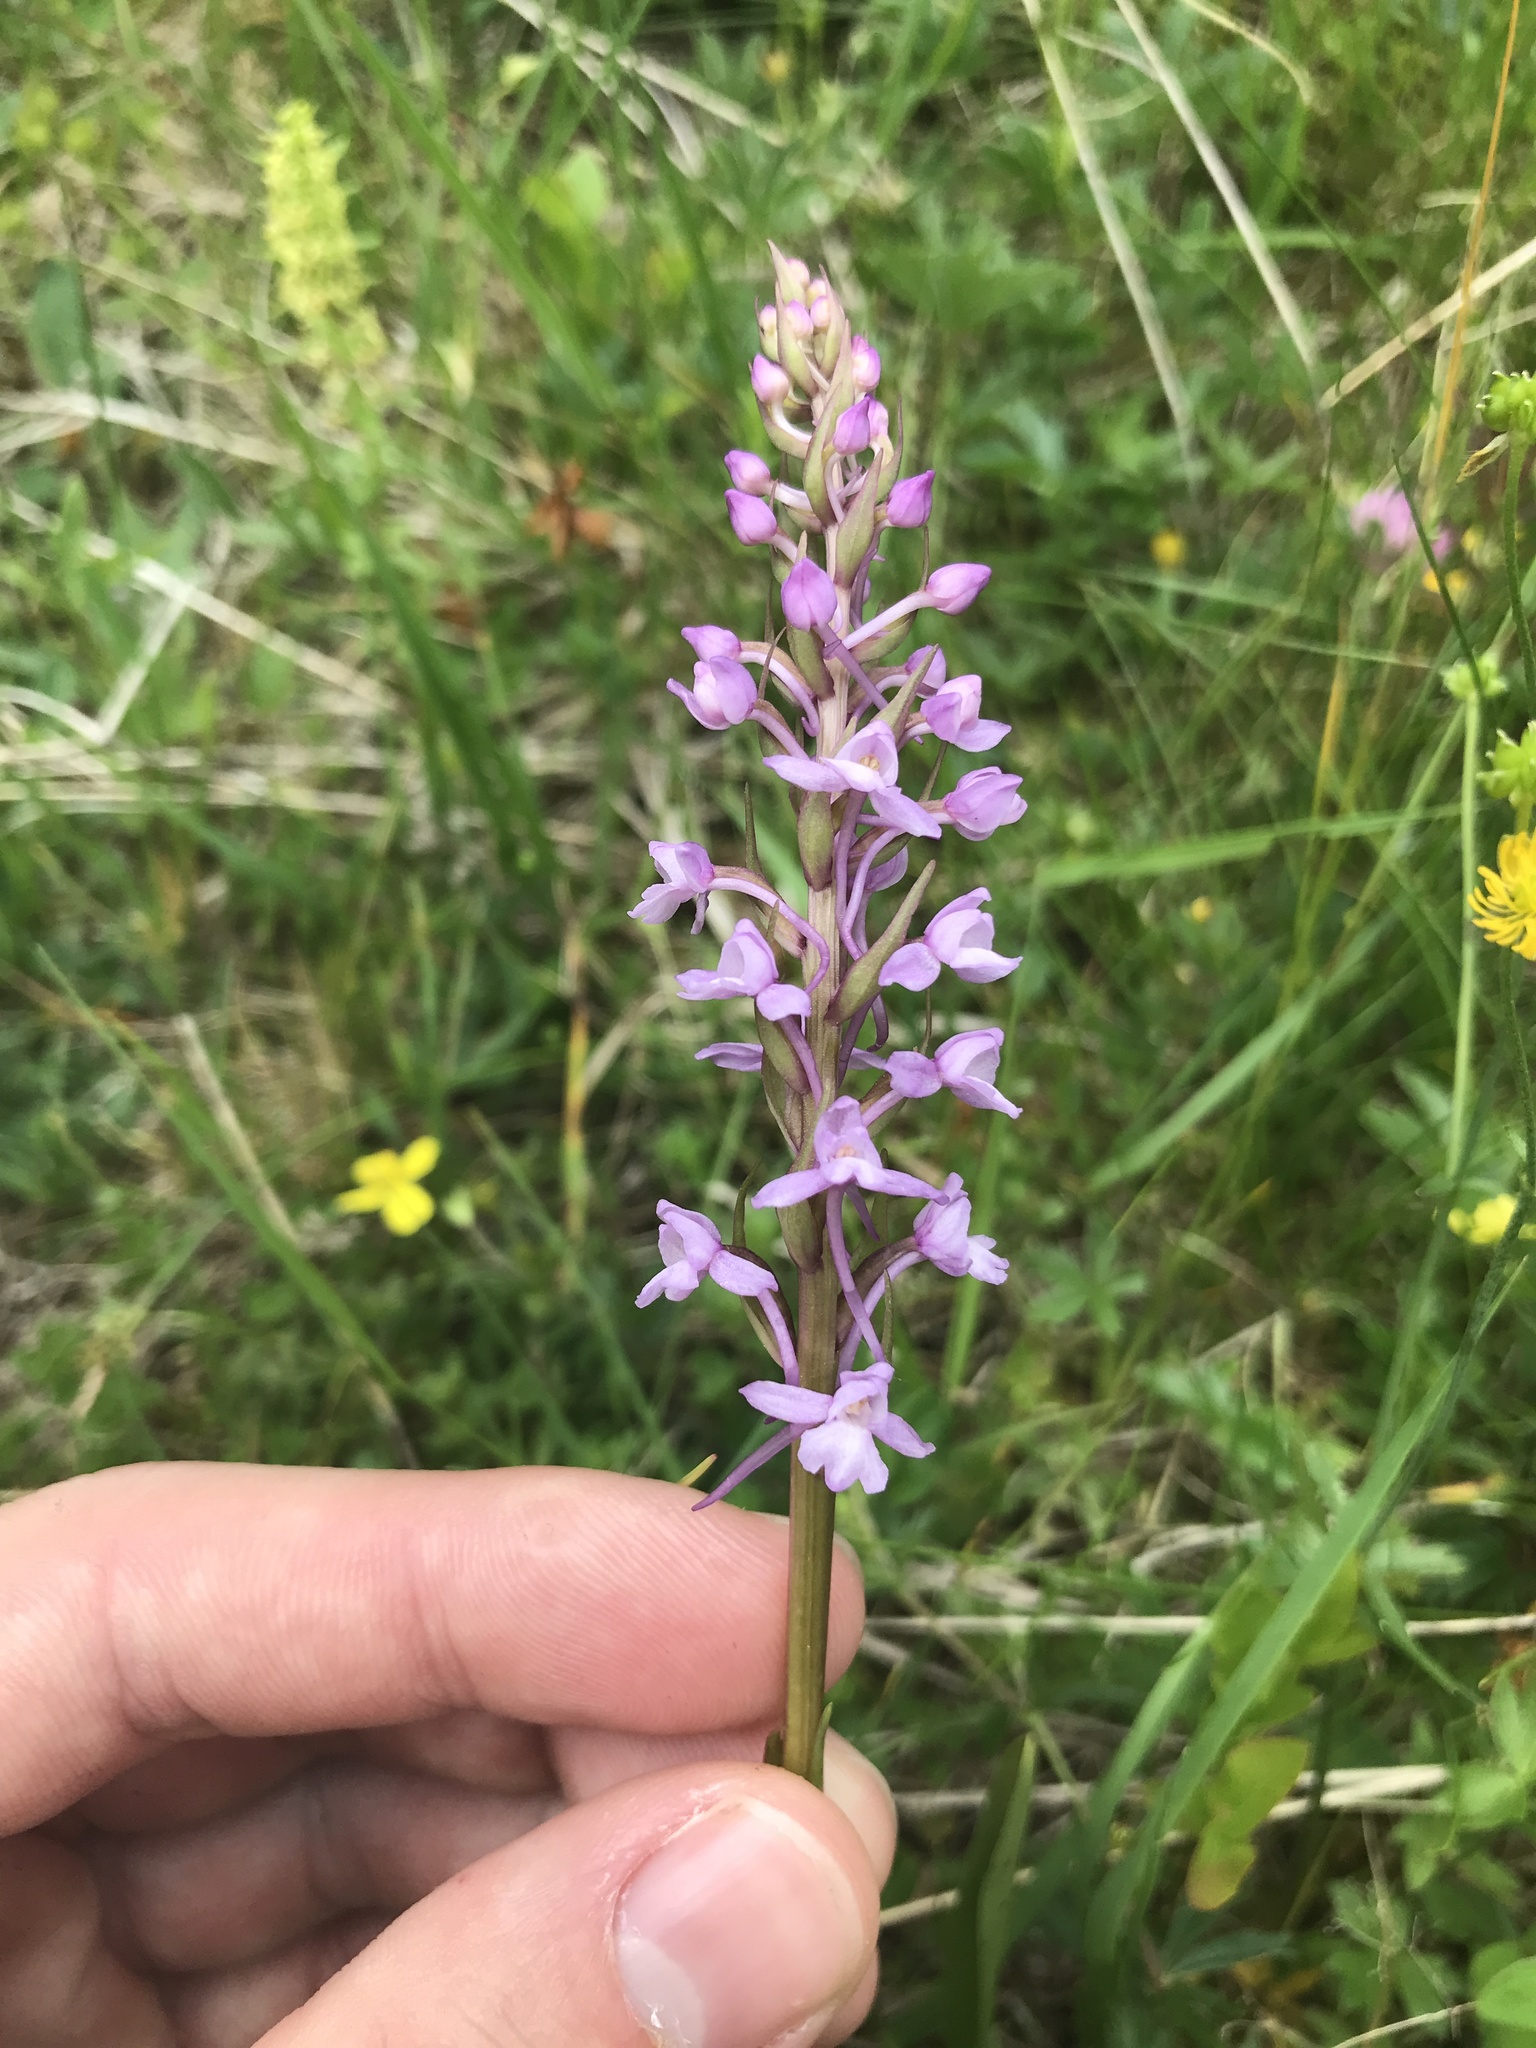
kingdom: Plantae
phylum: Tracheophyta
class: Liliopsida
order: Asparagales
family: Orchidaceae
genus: Gymnadenia
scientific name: Gymnadenia conopsea
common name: Fragrant orchid
